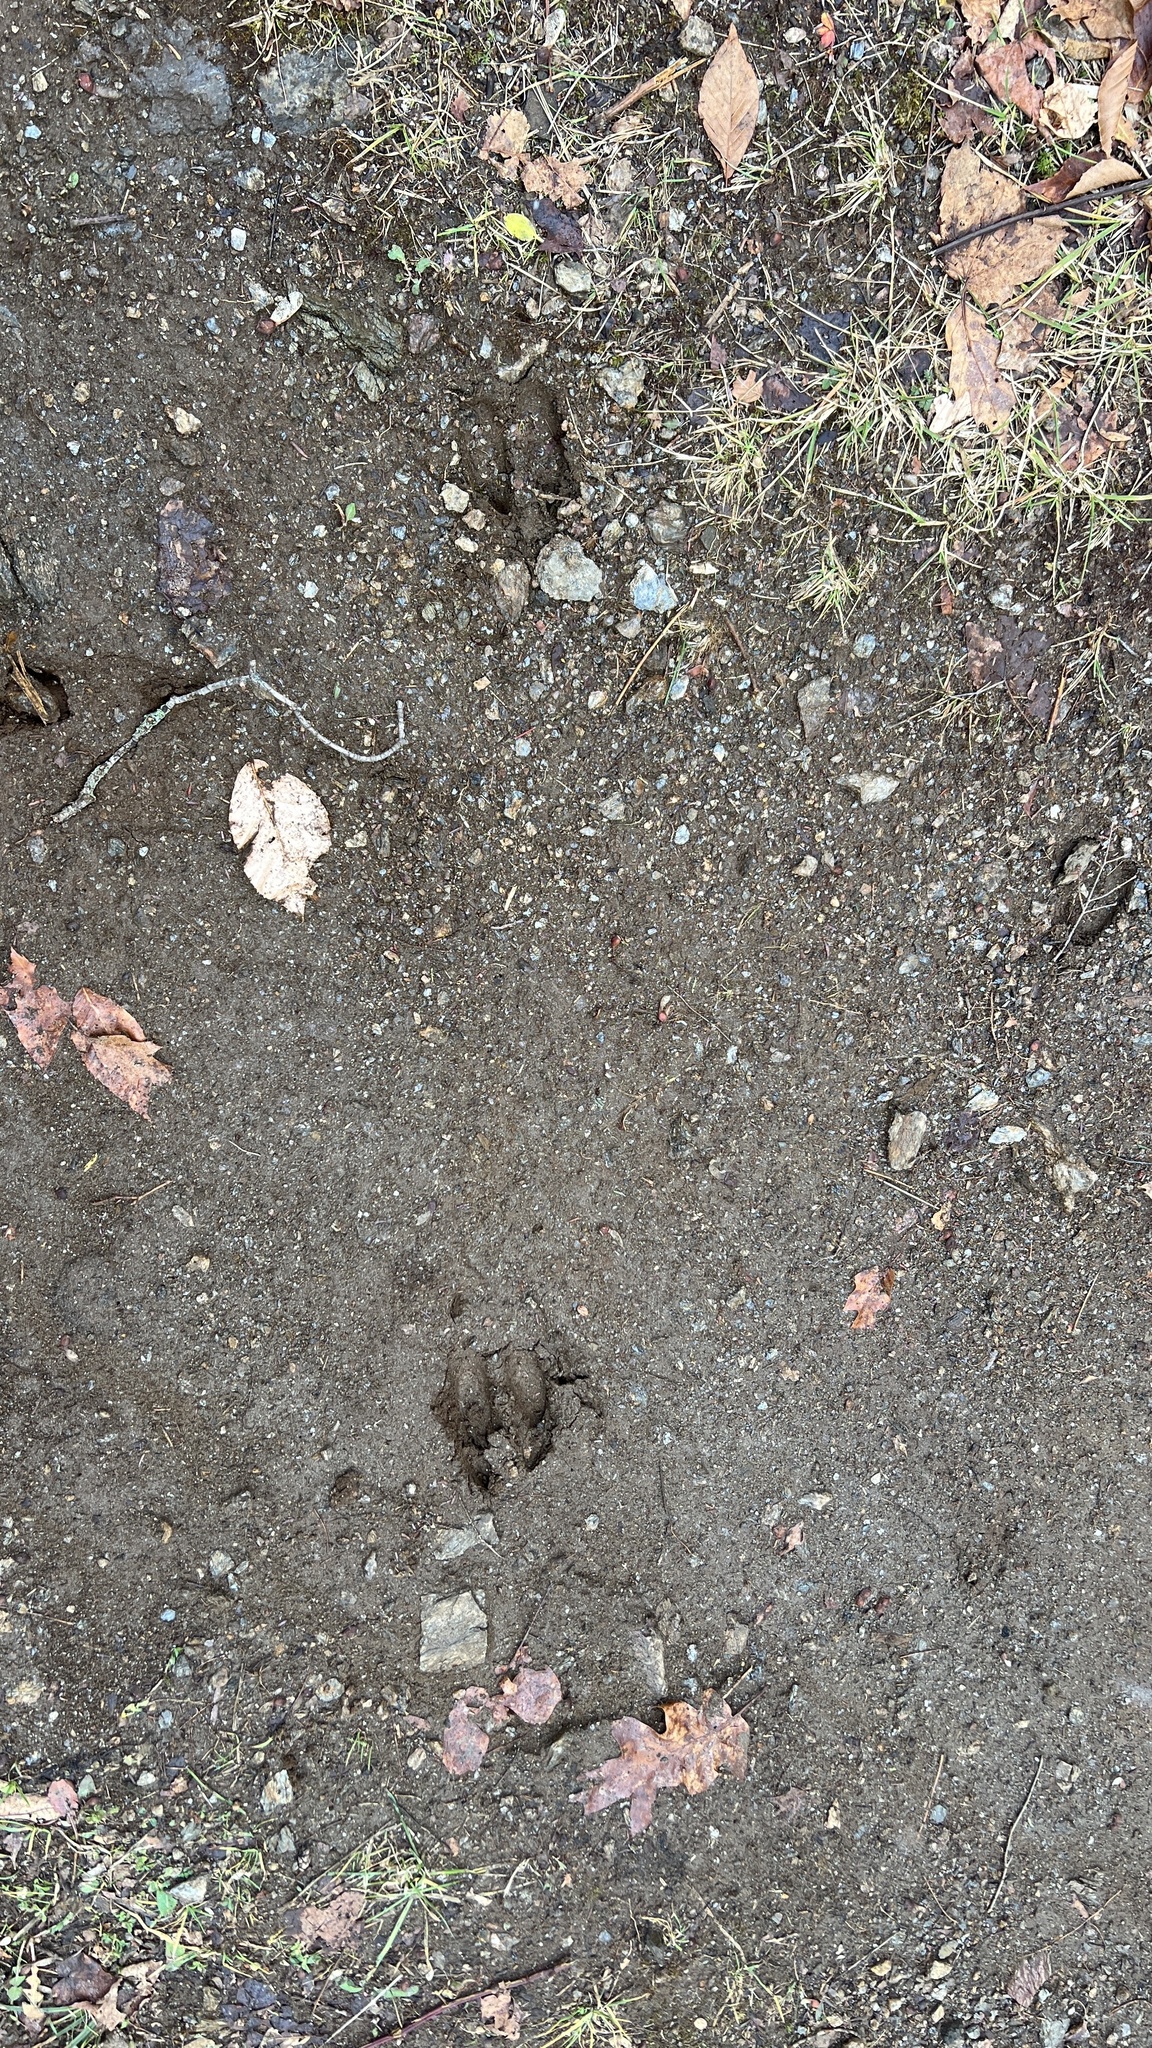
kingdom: Animalia
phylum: Chordata
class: Mammalia
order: Artiodactyla
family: Cervidae
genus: Odocoileus
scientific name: Odocoileus virginianus
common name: White-tailed deer
